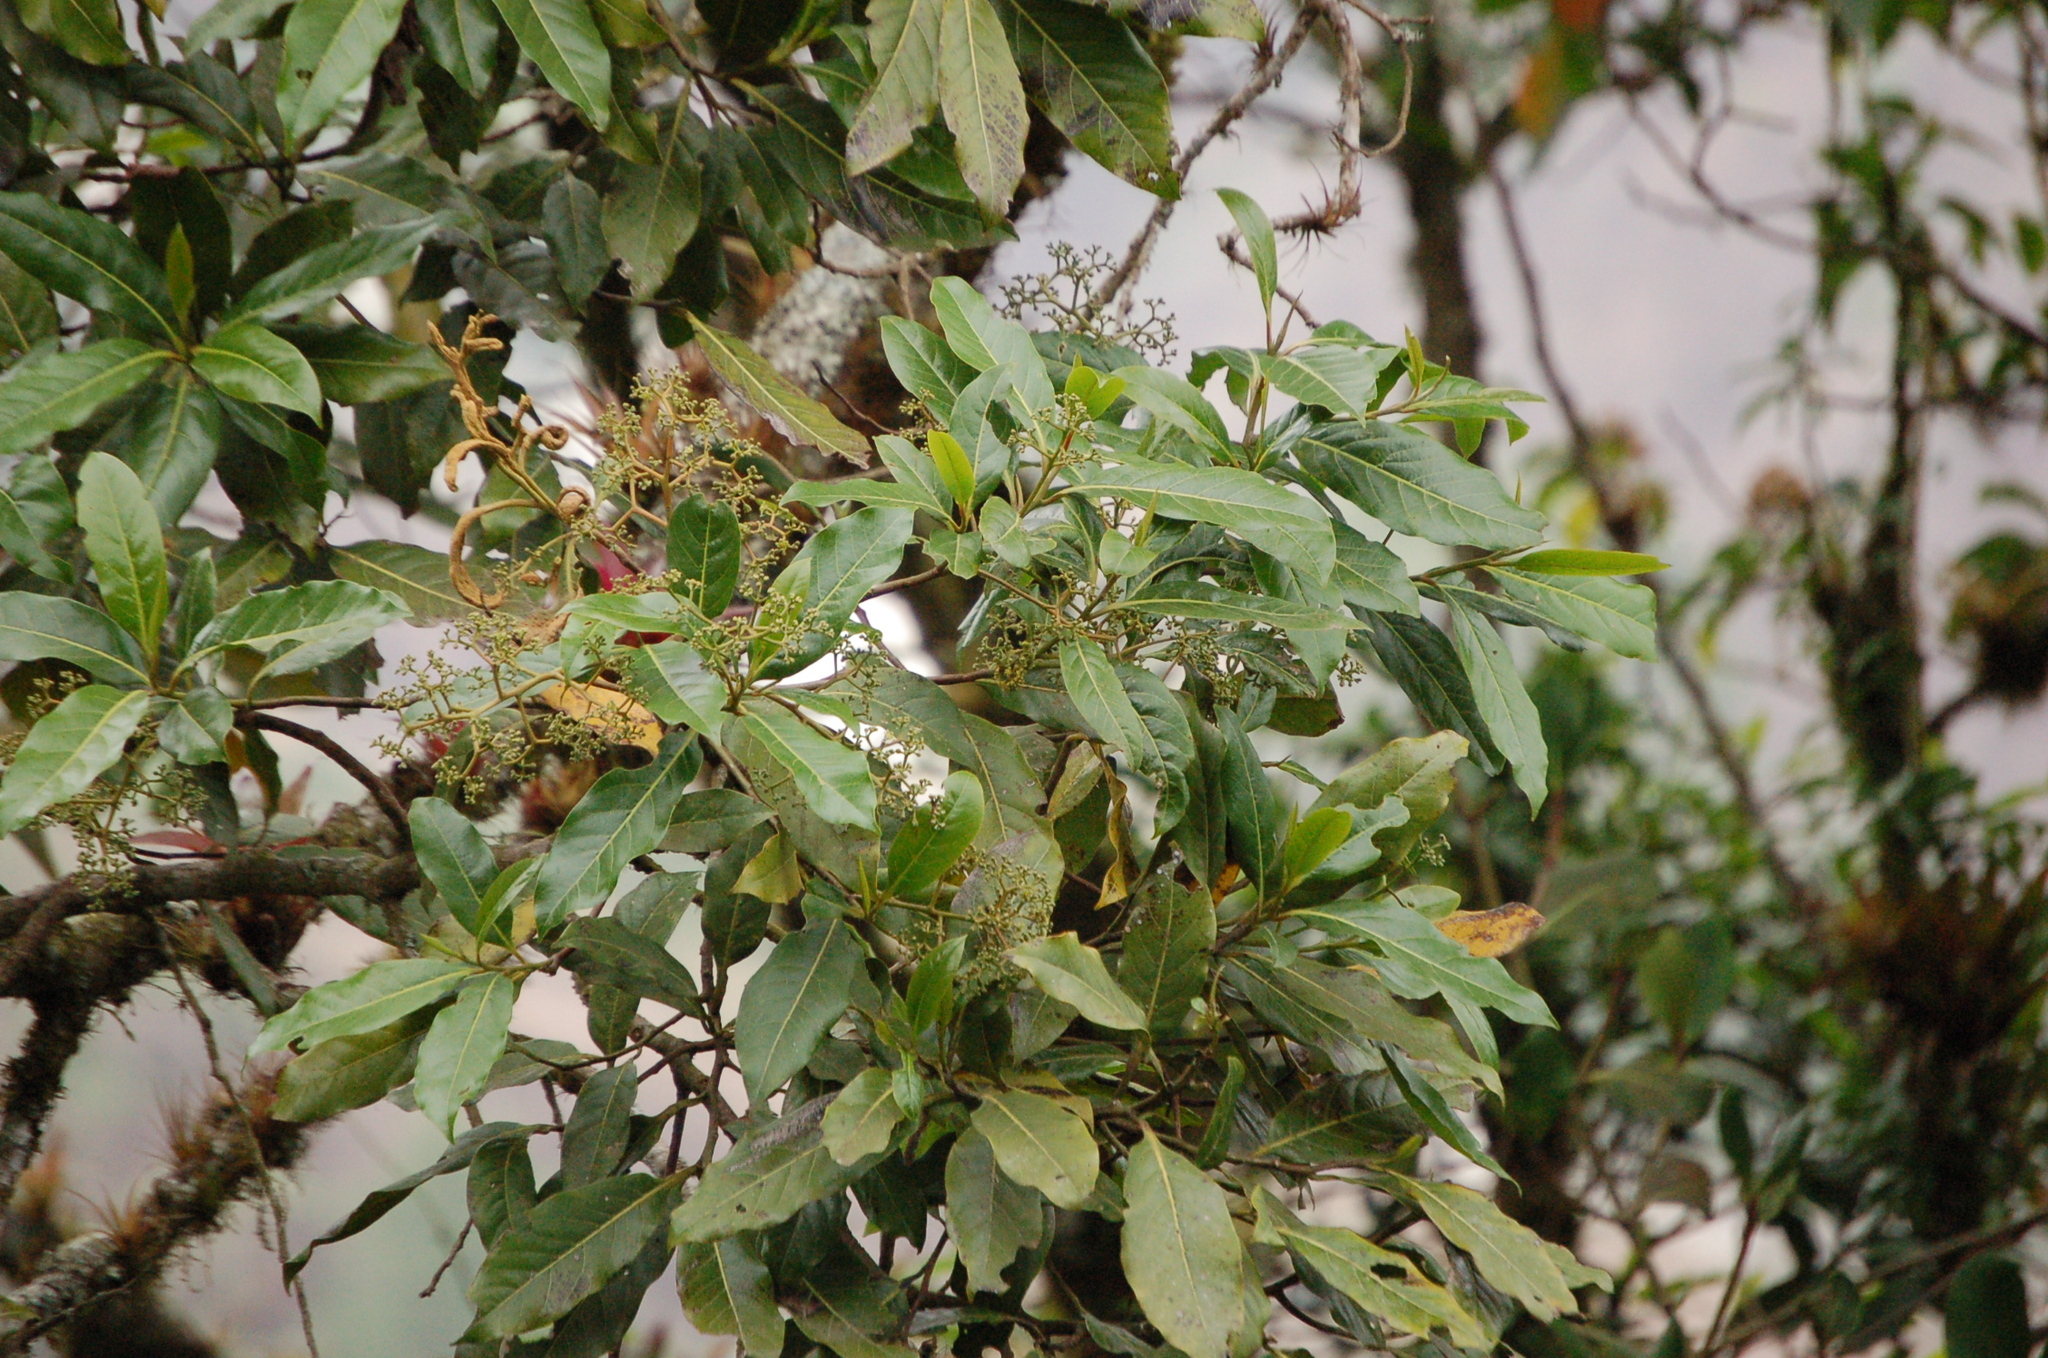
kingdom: Plantae
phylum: Tracheophyta
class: Magnoliopsida
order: Laurales
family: Lauraceae
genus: Persea
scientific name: Persea americana
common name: Avocado
